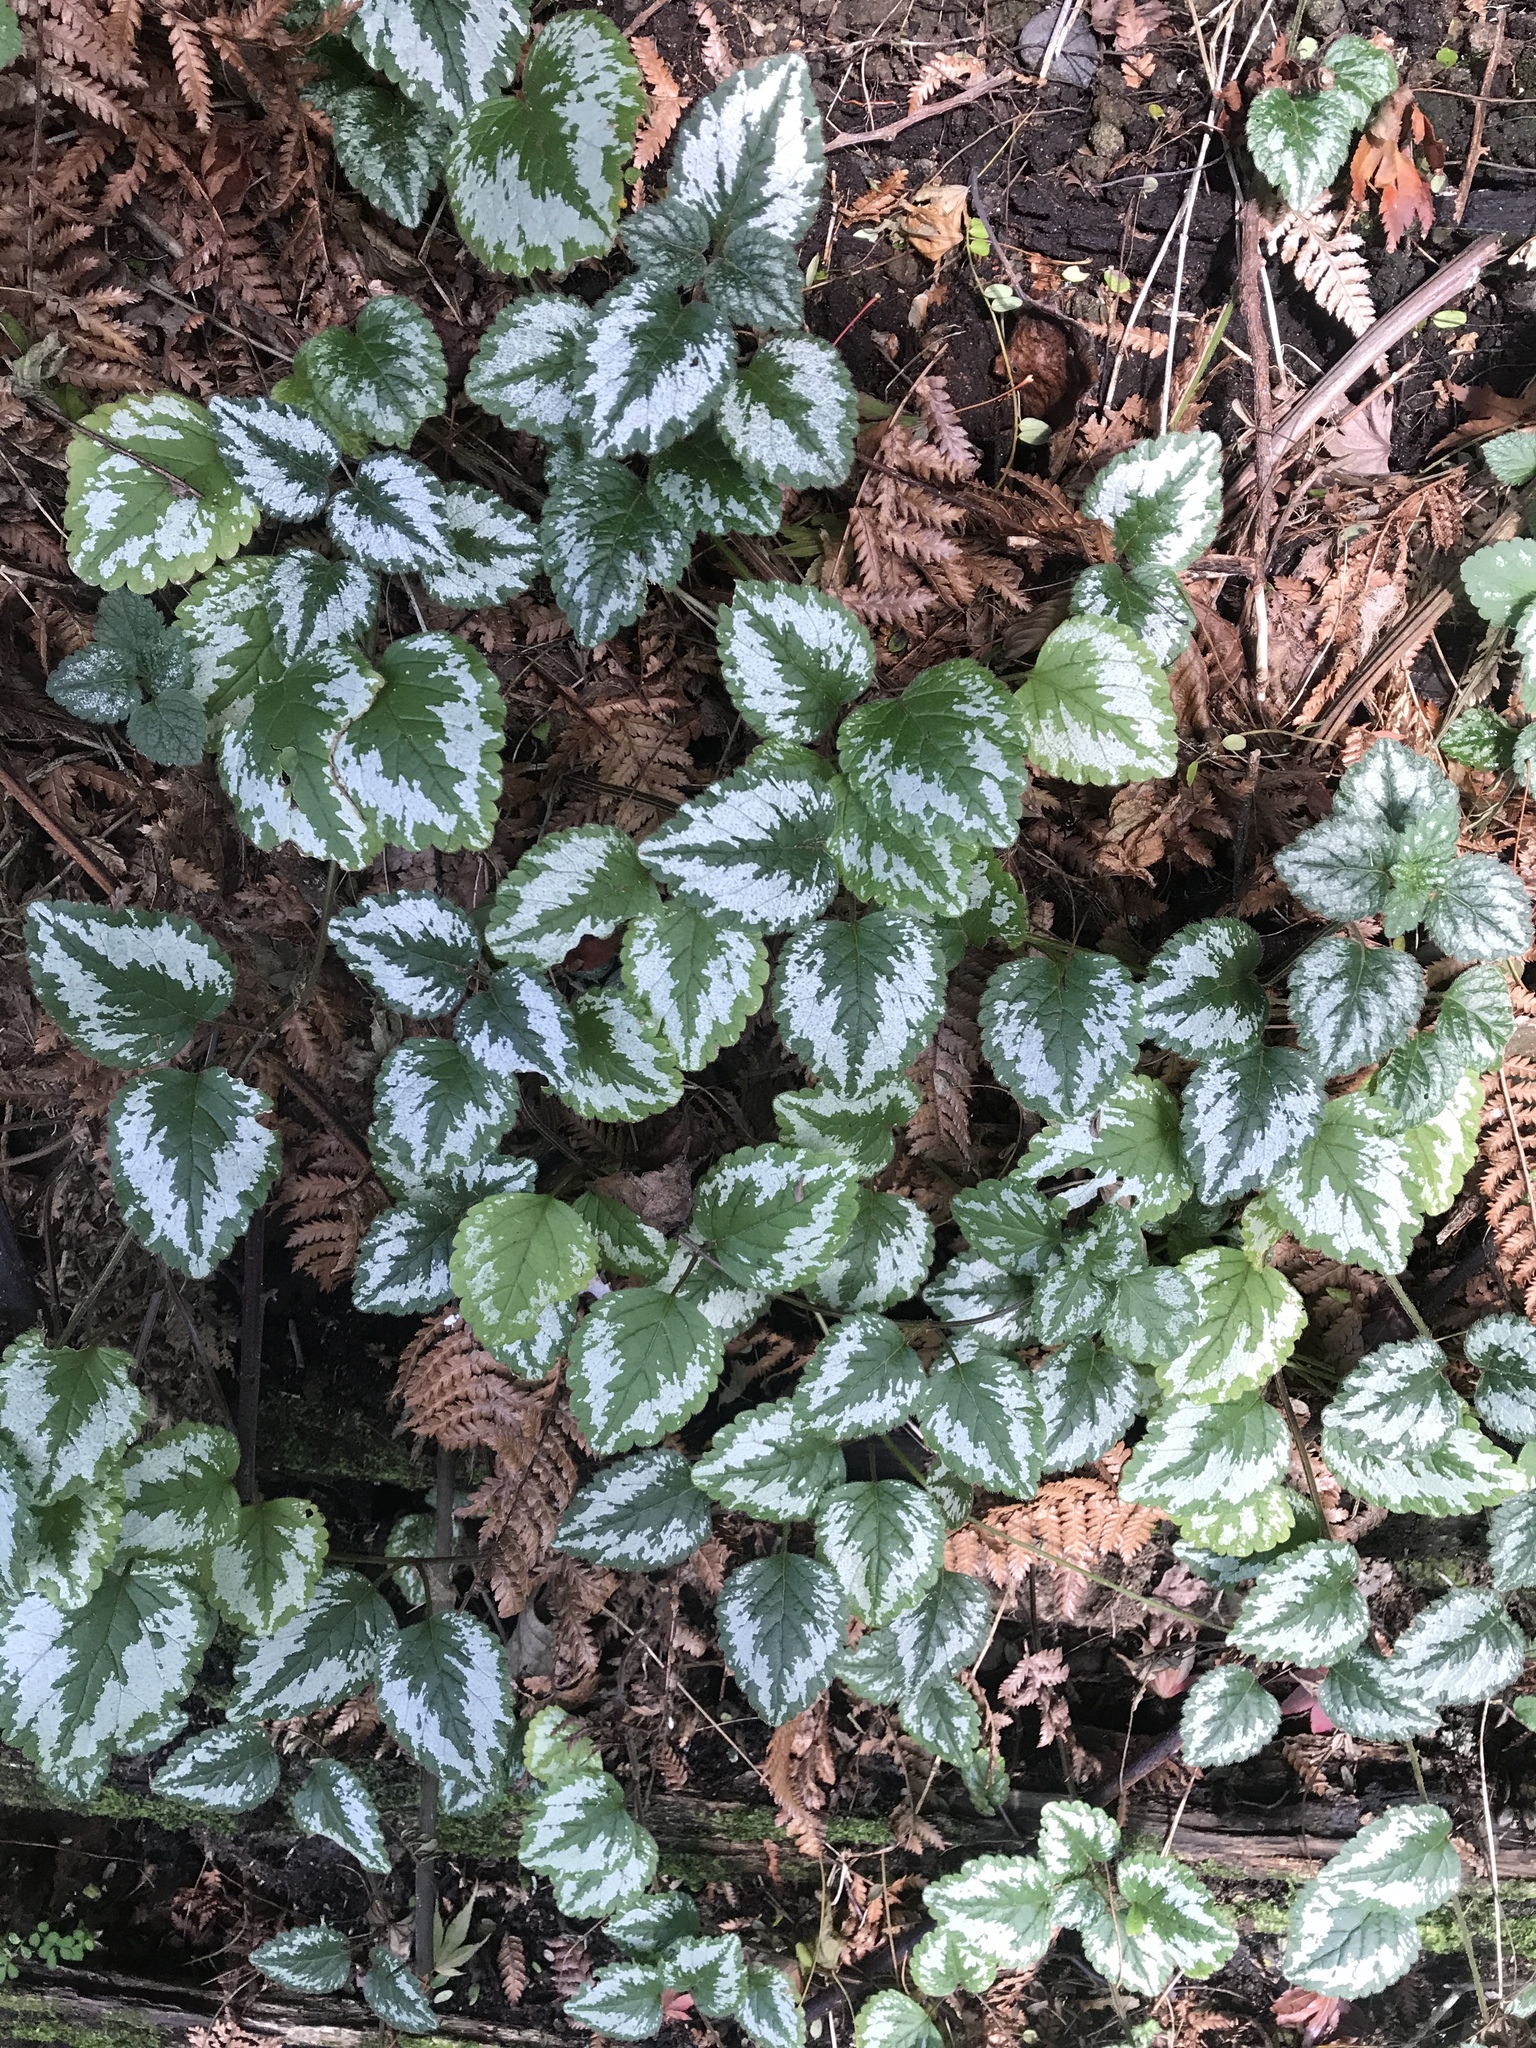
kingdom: Plantae
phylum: Tracheophyta
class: Magnoliopsida
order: Lamiales
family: Lamiaceae
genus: Lamium
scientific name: Lamium galeobdolon
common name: Yellow archangel
